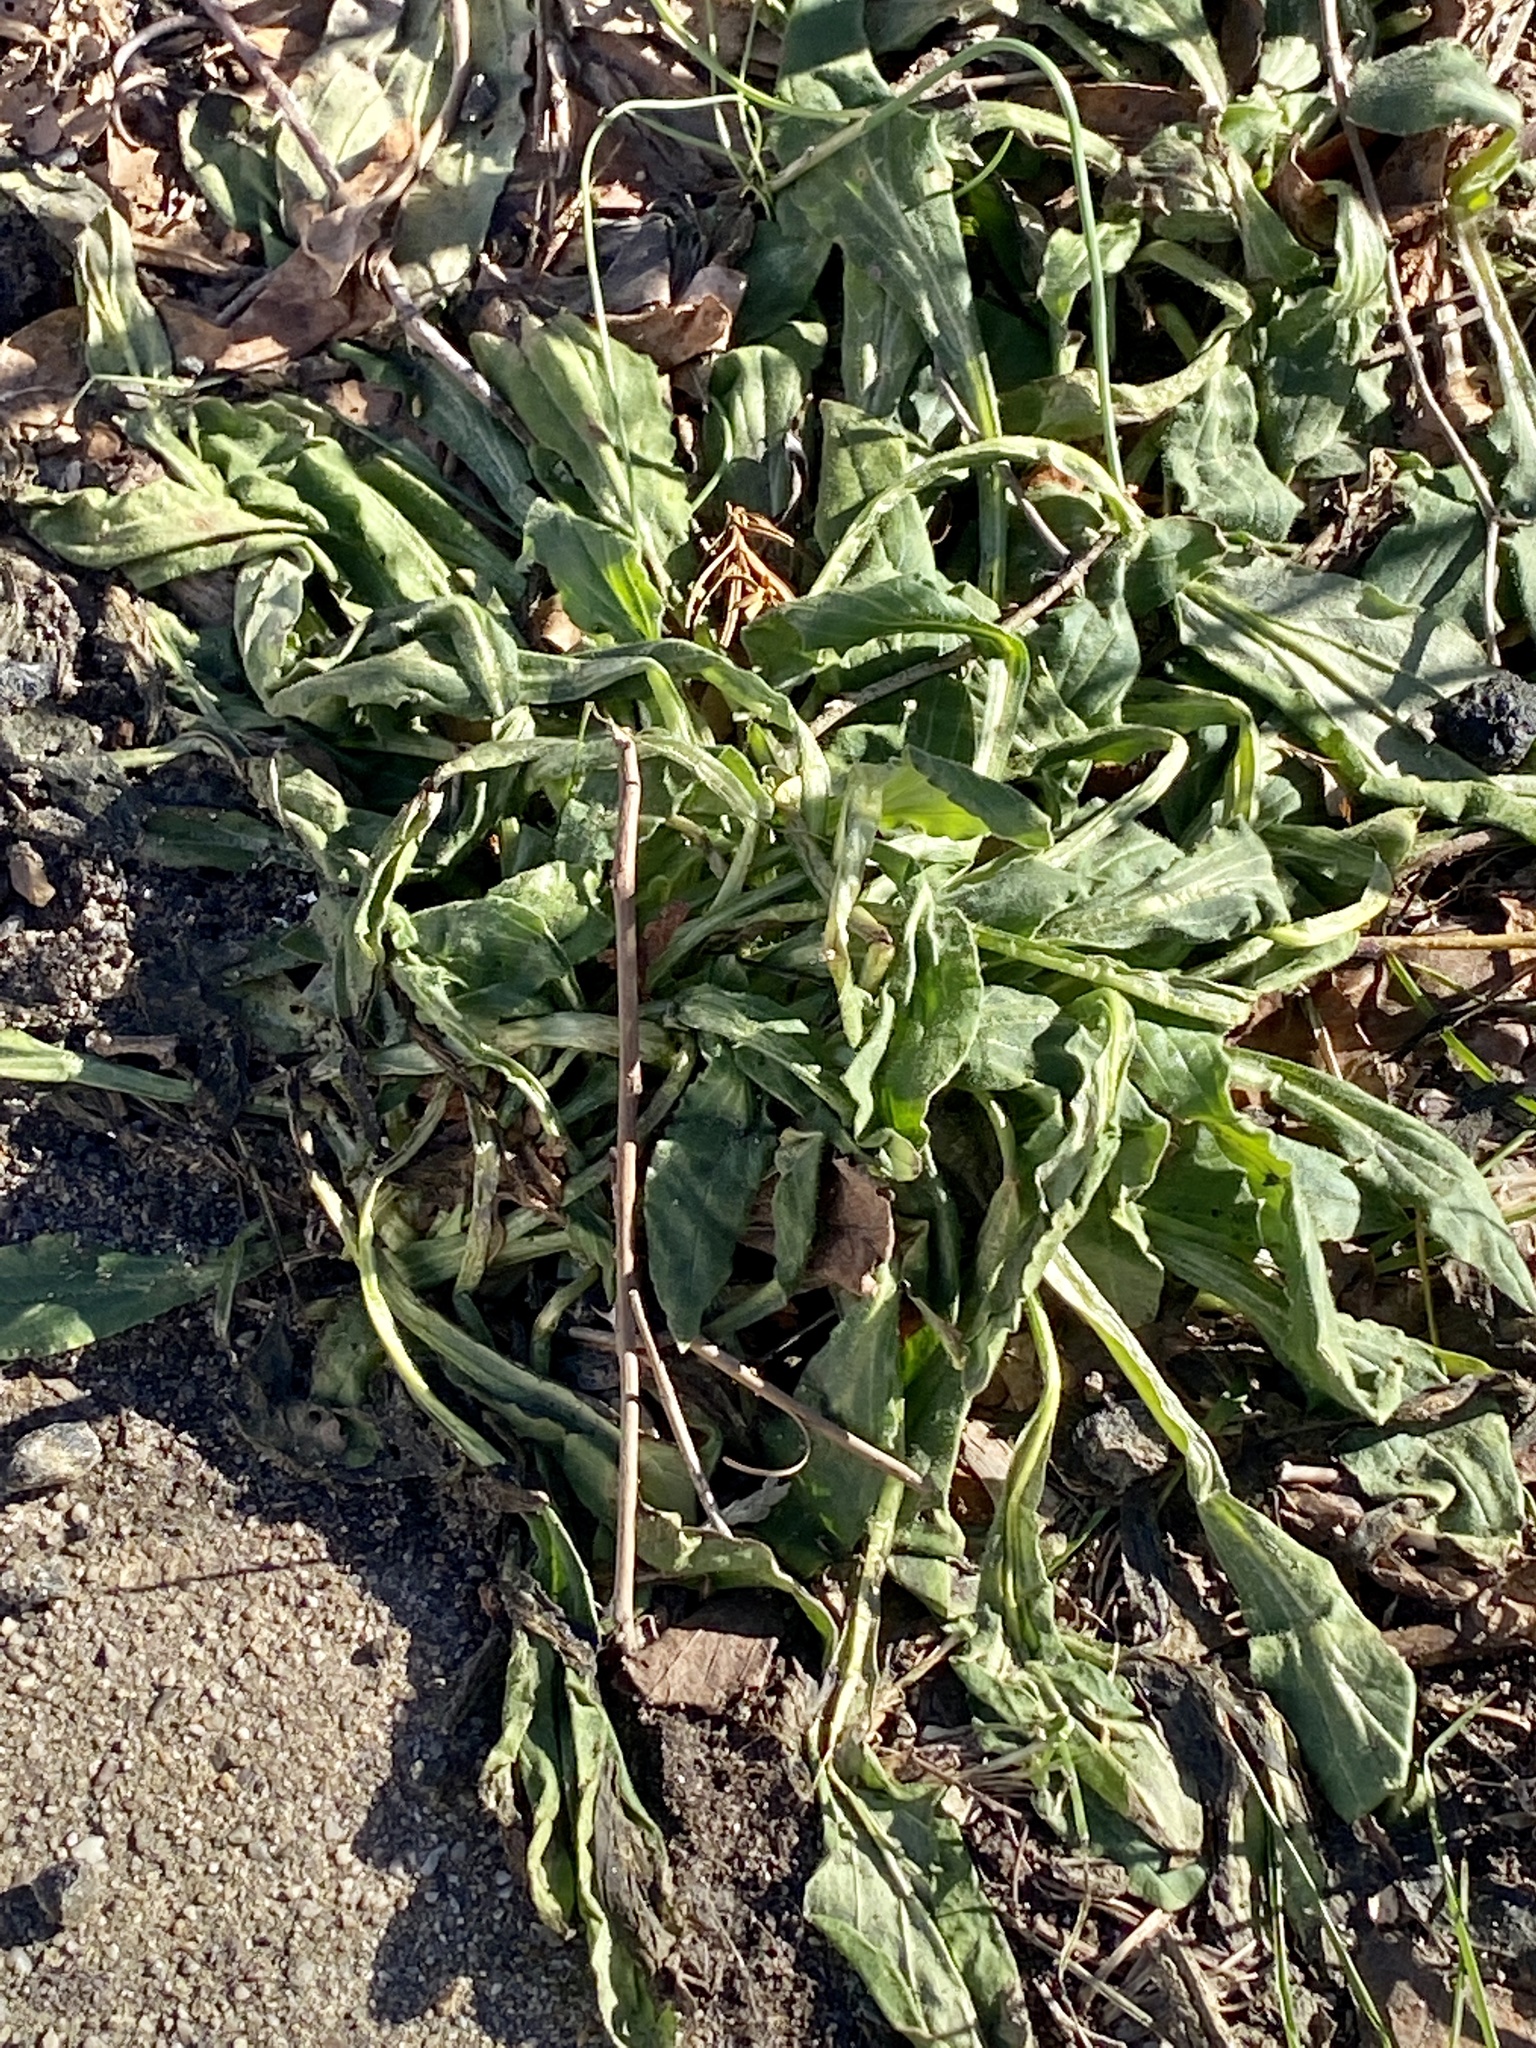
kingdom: Plantae
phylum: Tracheophyta
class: Magnoliopsida
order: Caryophyllales
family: Caryophyllaceae
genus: Silene
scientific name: Silene latifolia
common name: White campion
